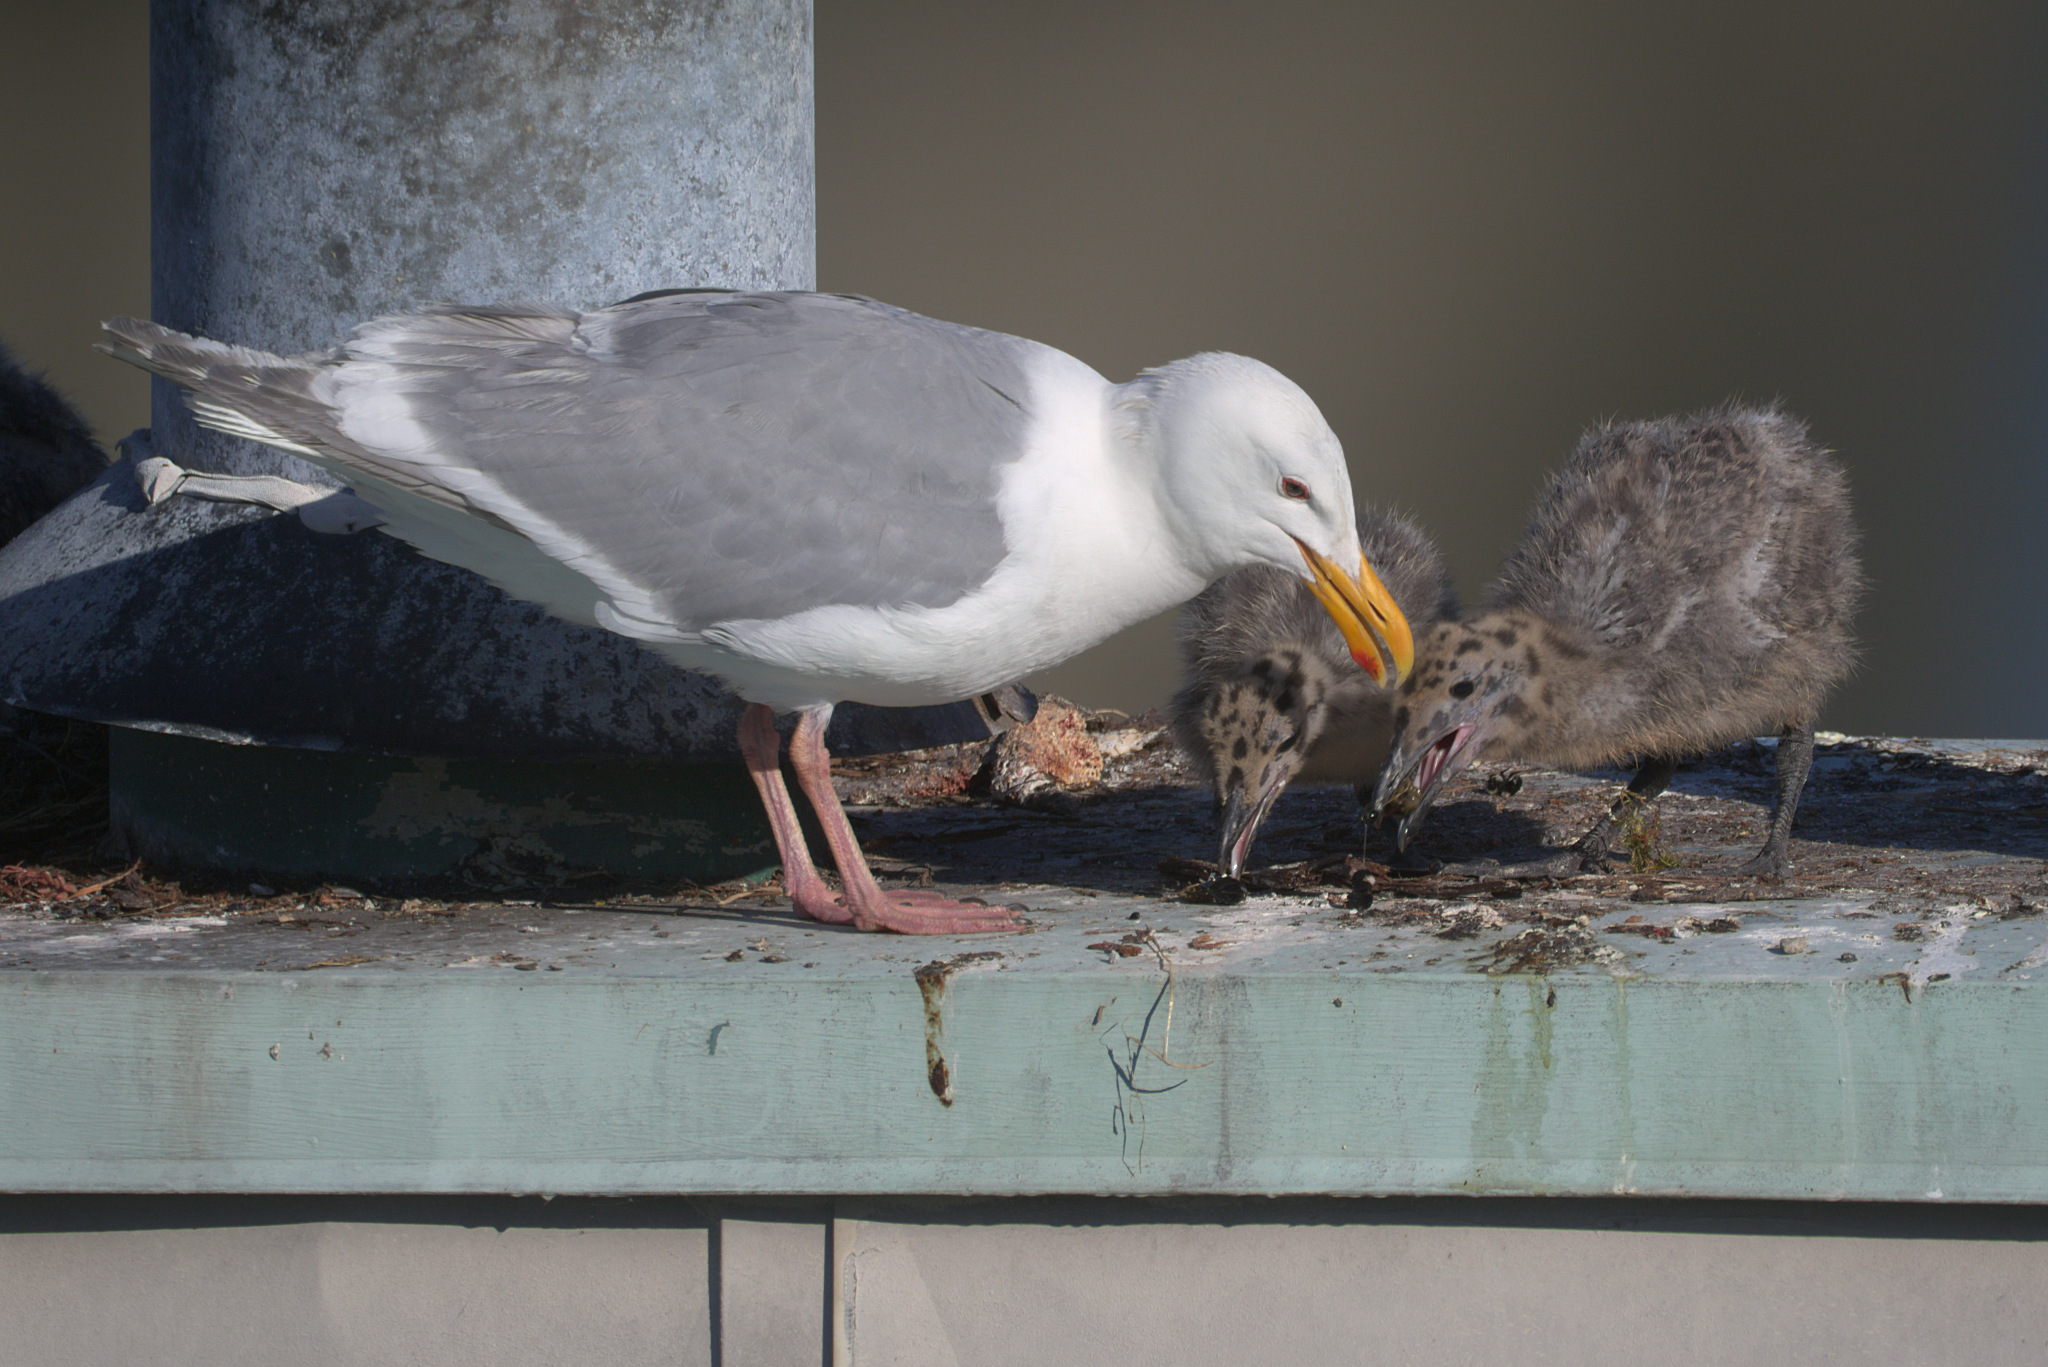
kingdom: Animalia
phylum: Chordata
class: Aves
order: Charadriiformes
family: Laridae
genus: Larus
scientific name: Larus glaucescens
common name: Glaucous-winged gull
